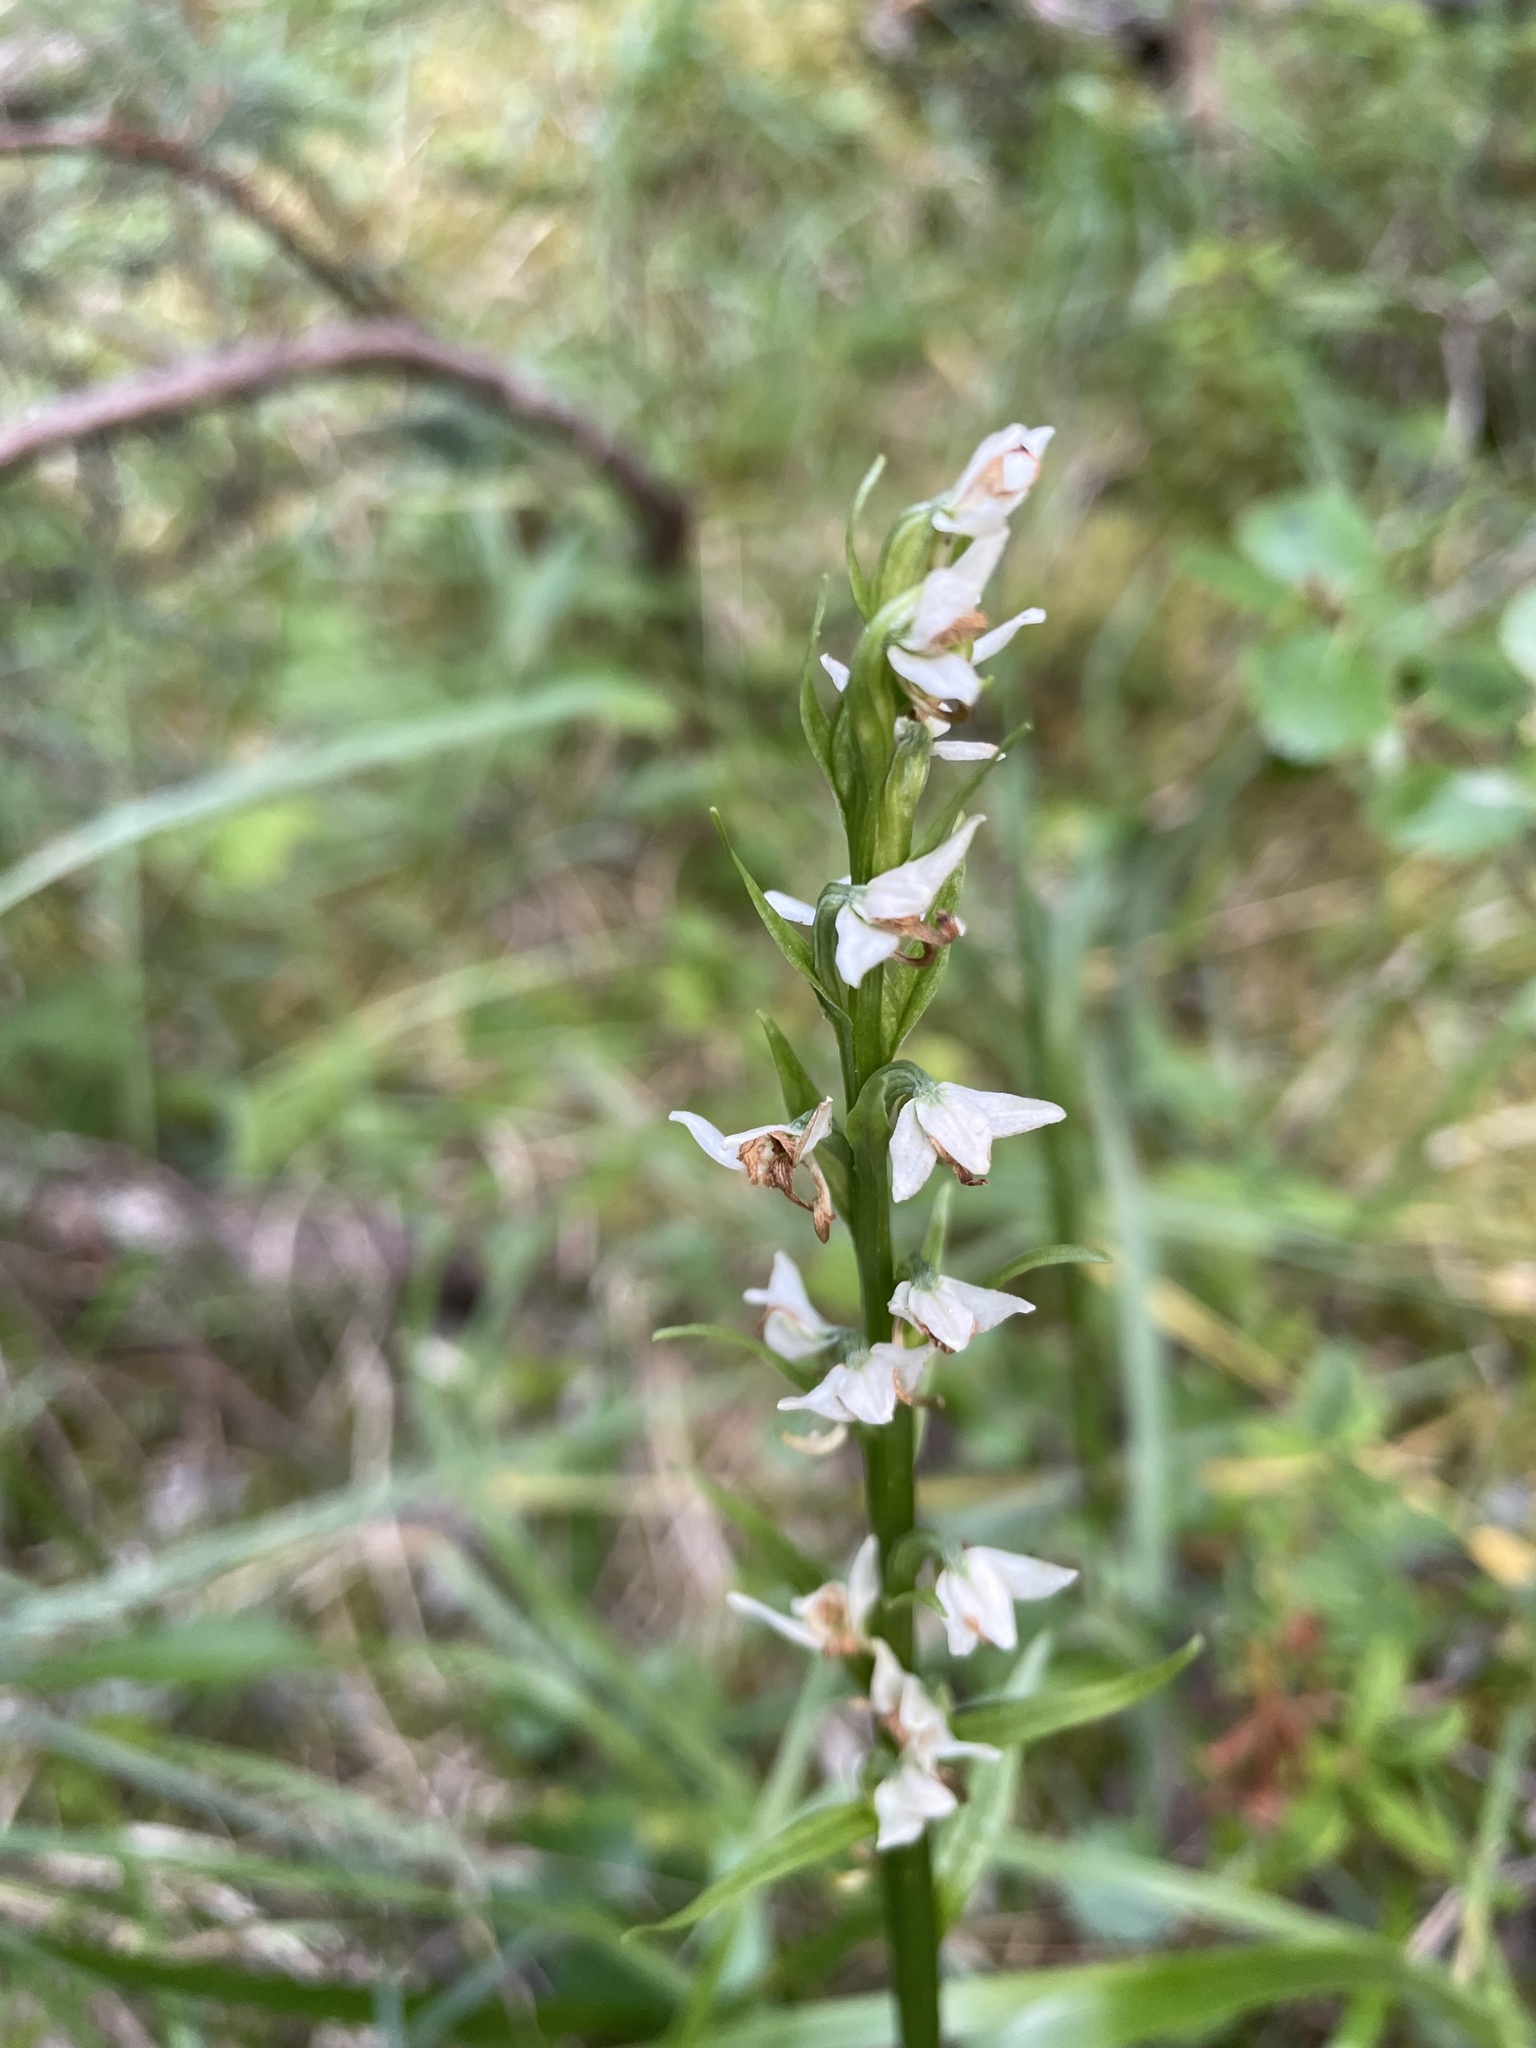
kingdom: Plantae
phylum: Tracheophyta
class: Liliopsida
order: Asparagales
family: Orchidaceae
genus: Platanthera
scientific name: Platanthera dilatata
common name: Bog candles
